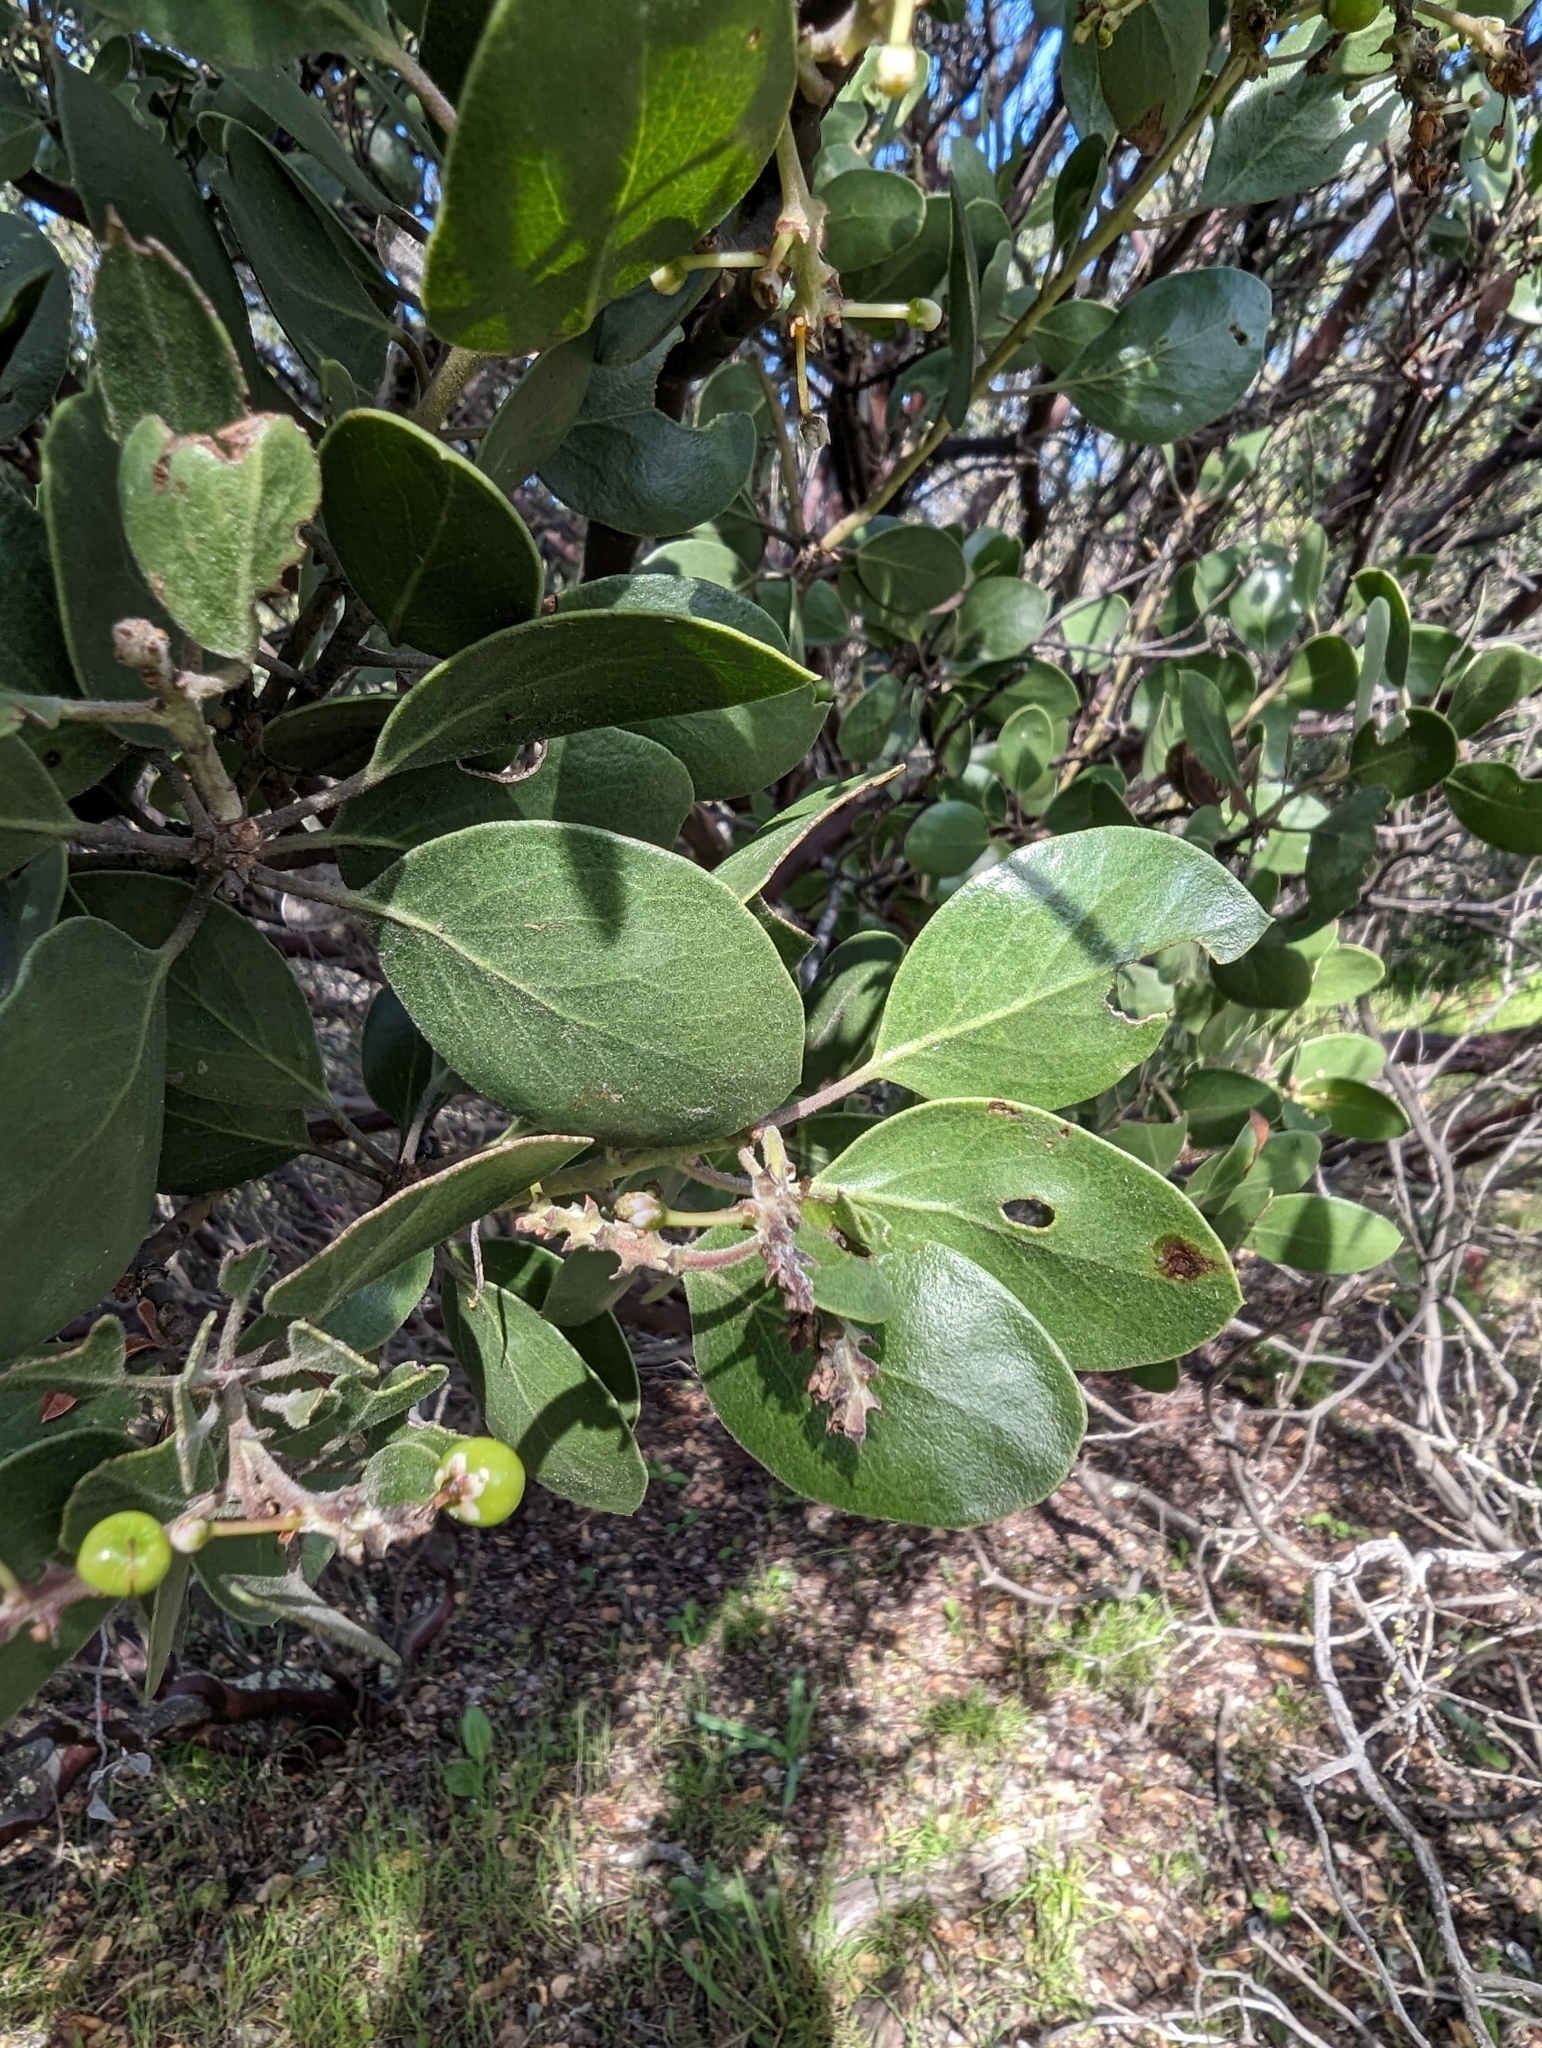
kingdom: Plantae
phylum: Tracheophyta
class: Magnoliopsida
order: Ericales
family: Ericaceae
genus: Arctostaphylos
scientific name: Arctostaphylos manzanita
